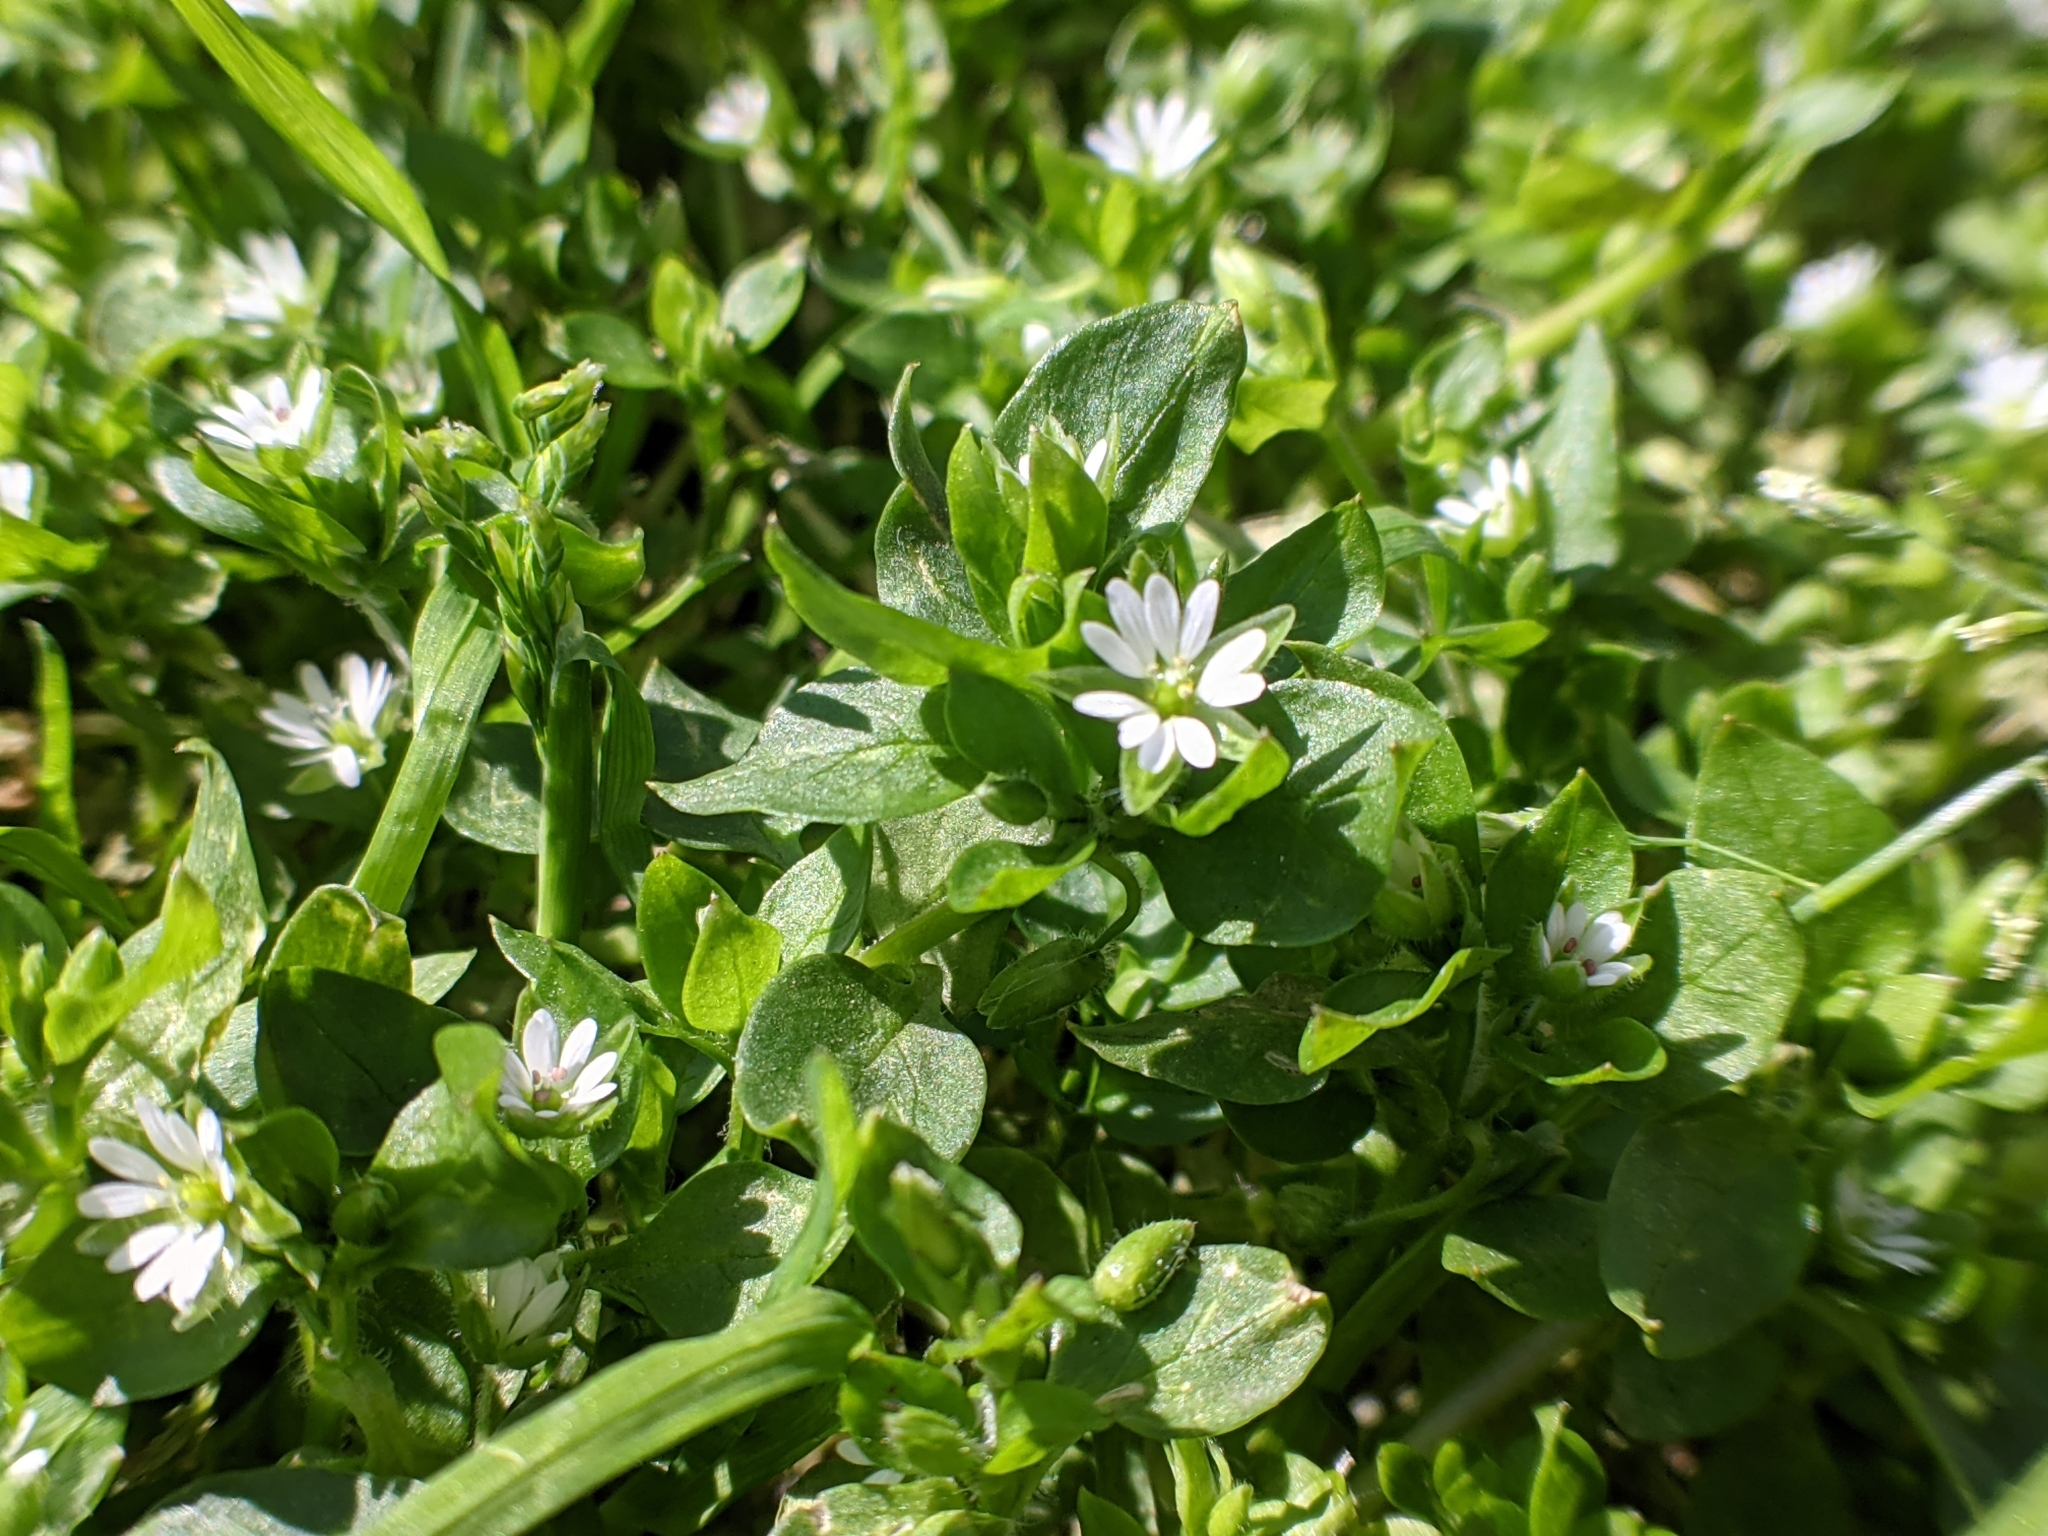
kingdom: Plantae
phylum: Tracheophyta
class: Magnoliopsida
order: Caryophyllales
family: Caryophyllaceae
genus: Stellaria
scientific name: Stellaria media
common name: Common chickweed
